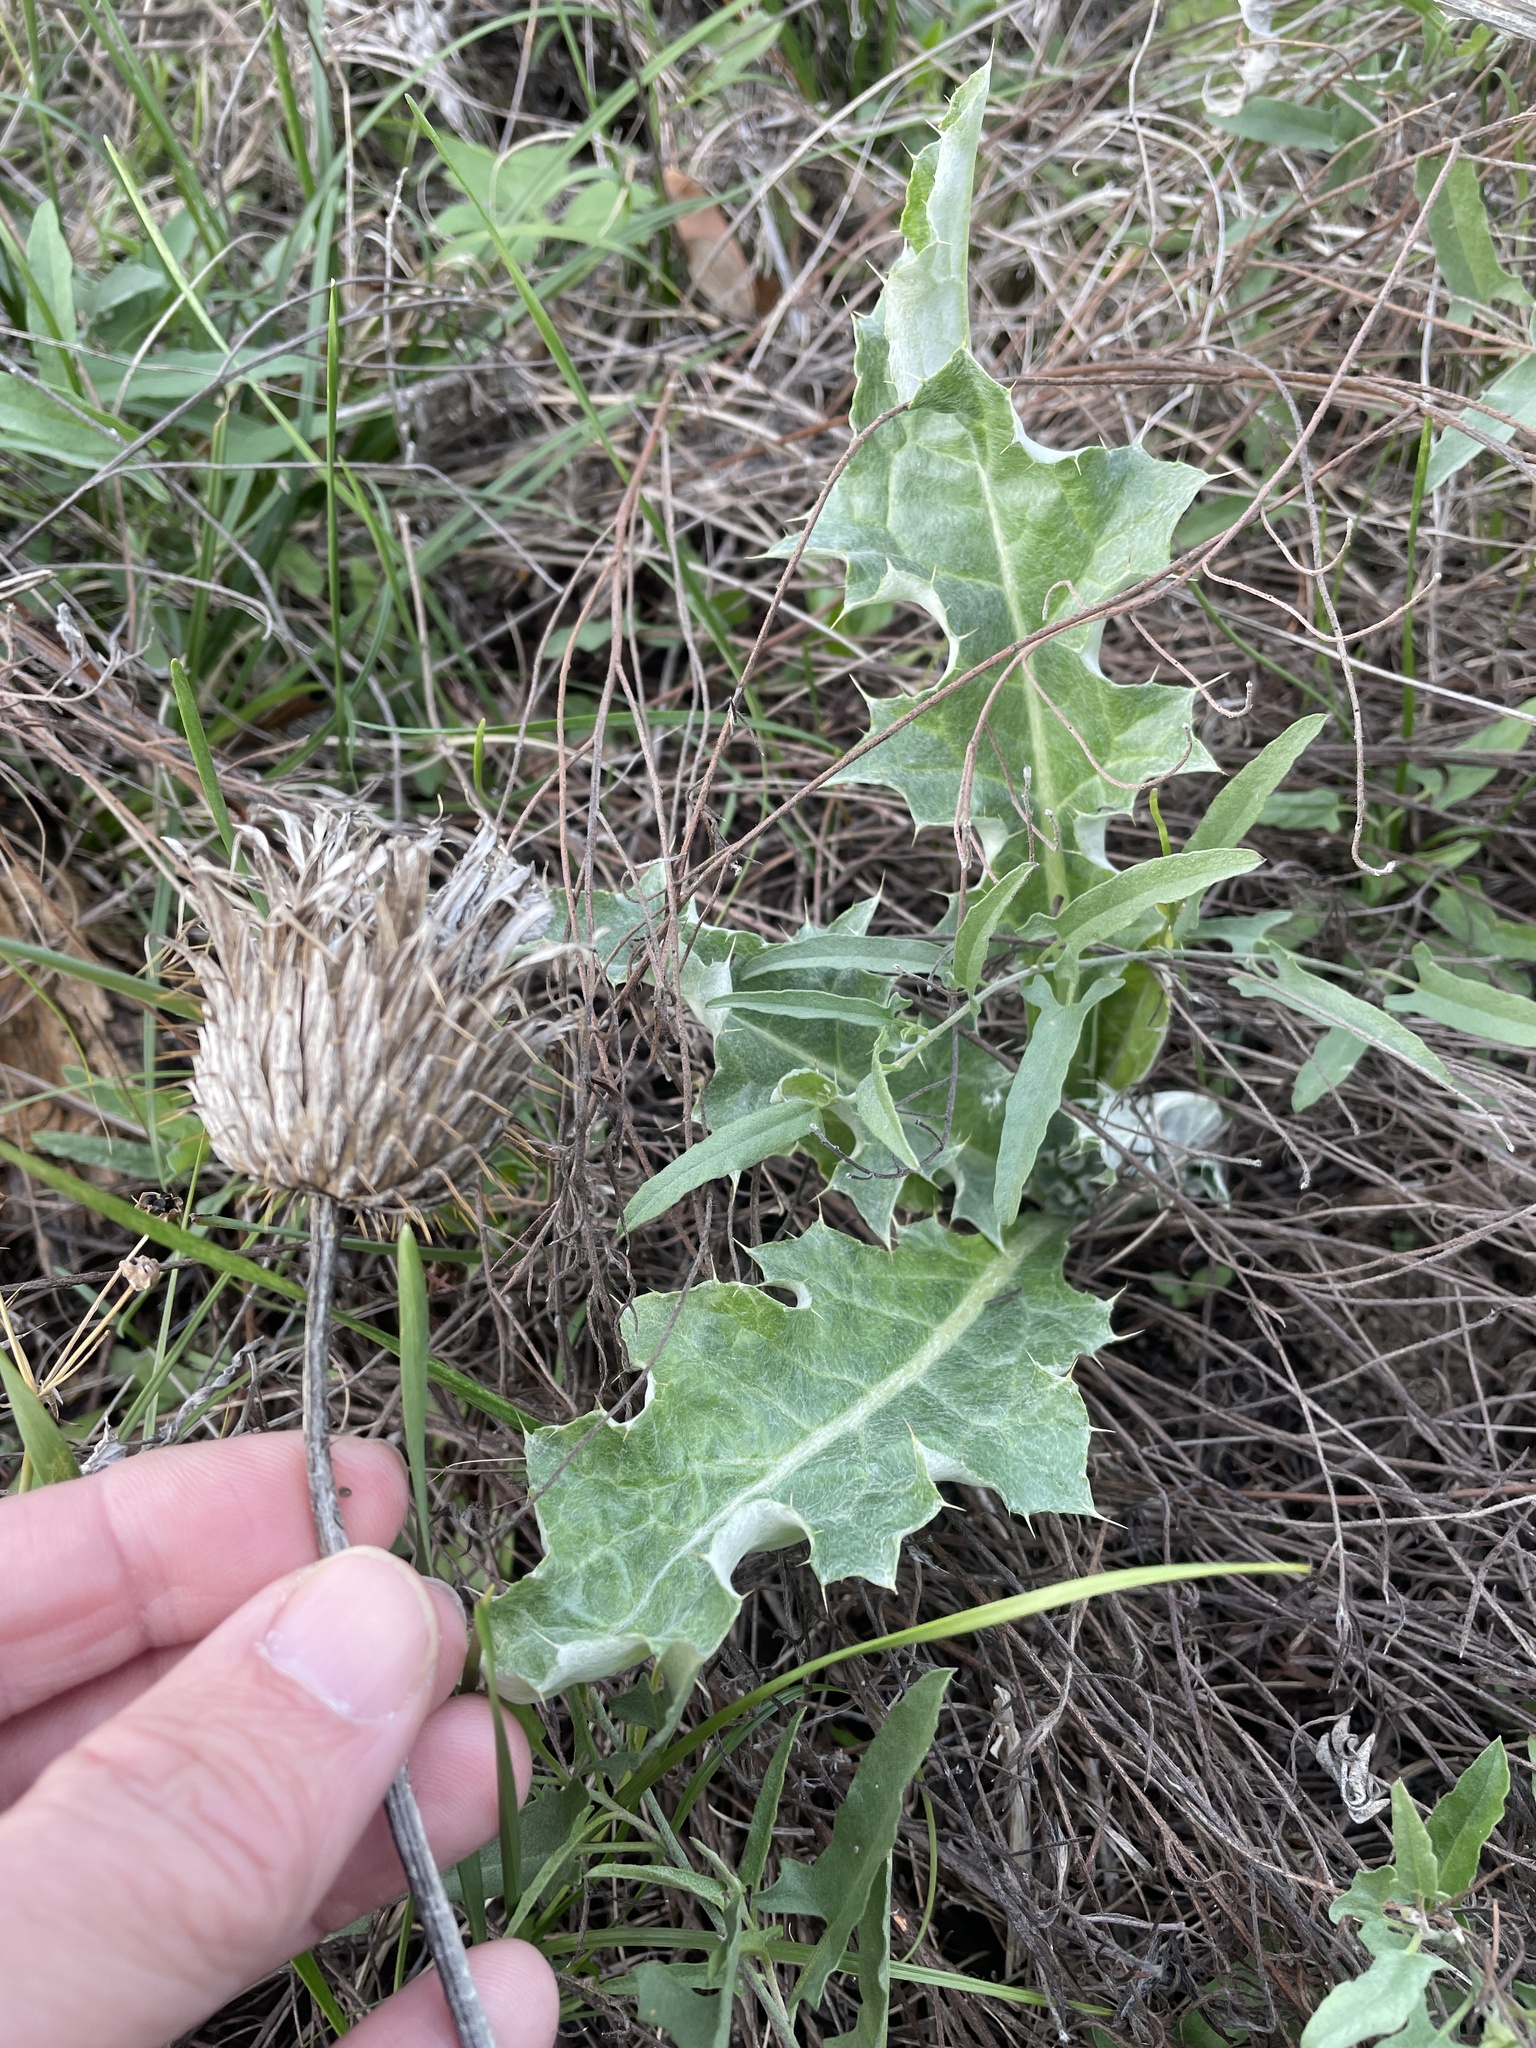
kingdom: Plantae
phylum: Tracheophyta
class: Magnoliopsida
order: Asterales
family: Asteraceae
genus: Cirsium
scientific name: Cirsium undulatum
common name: Pasture thistle
